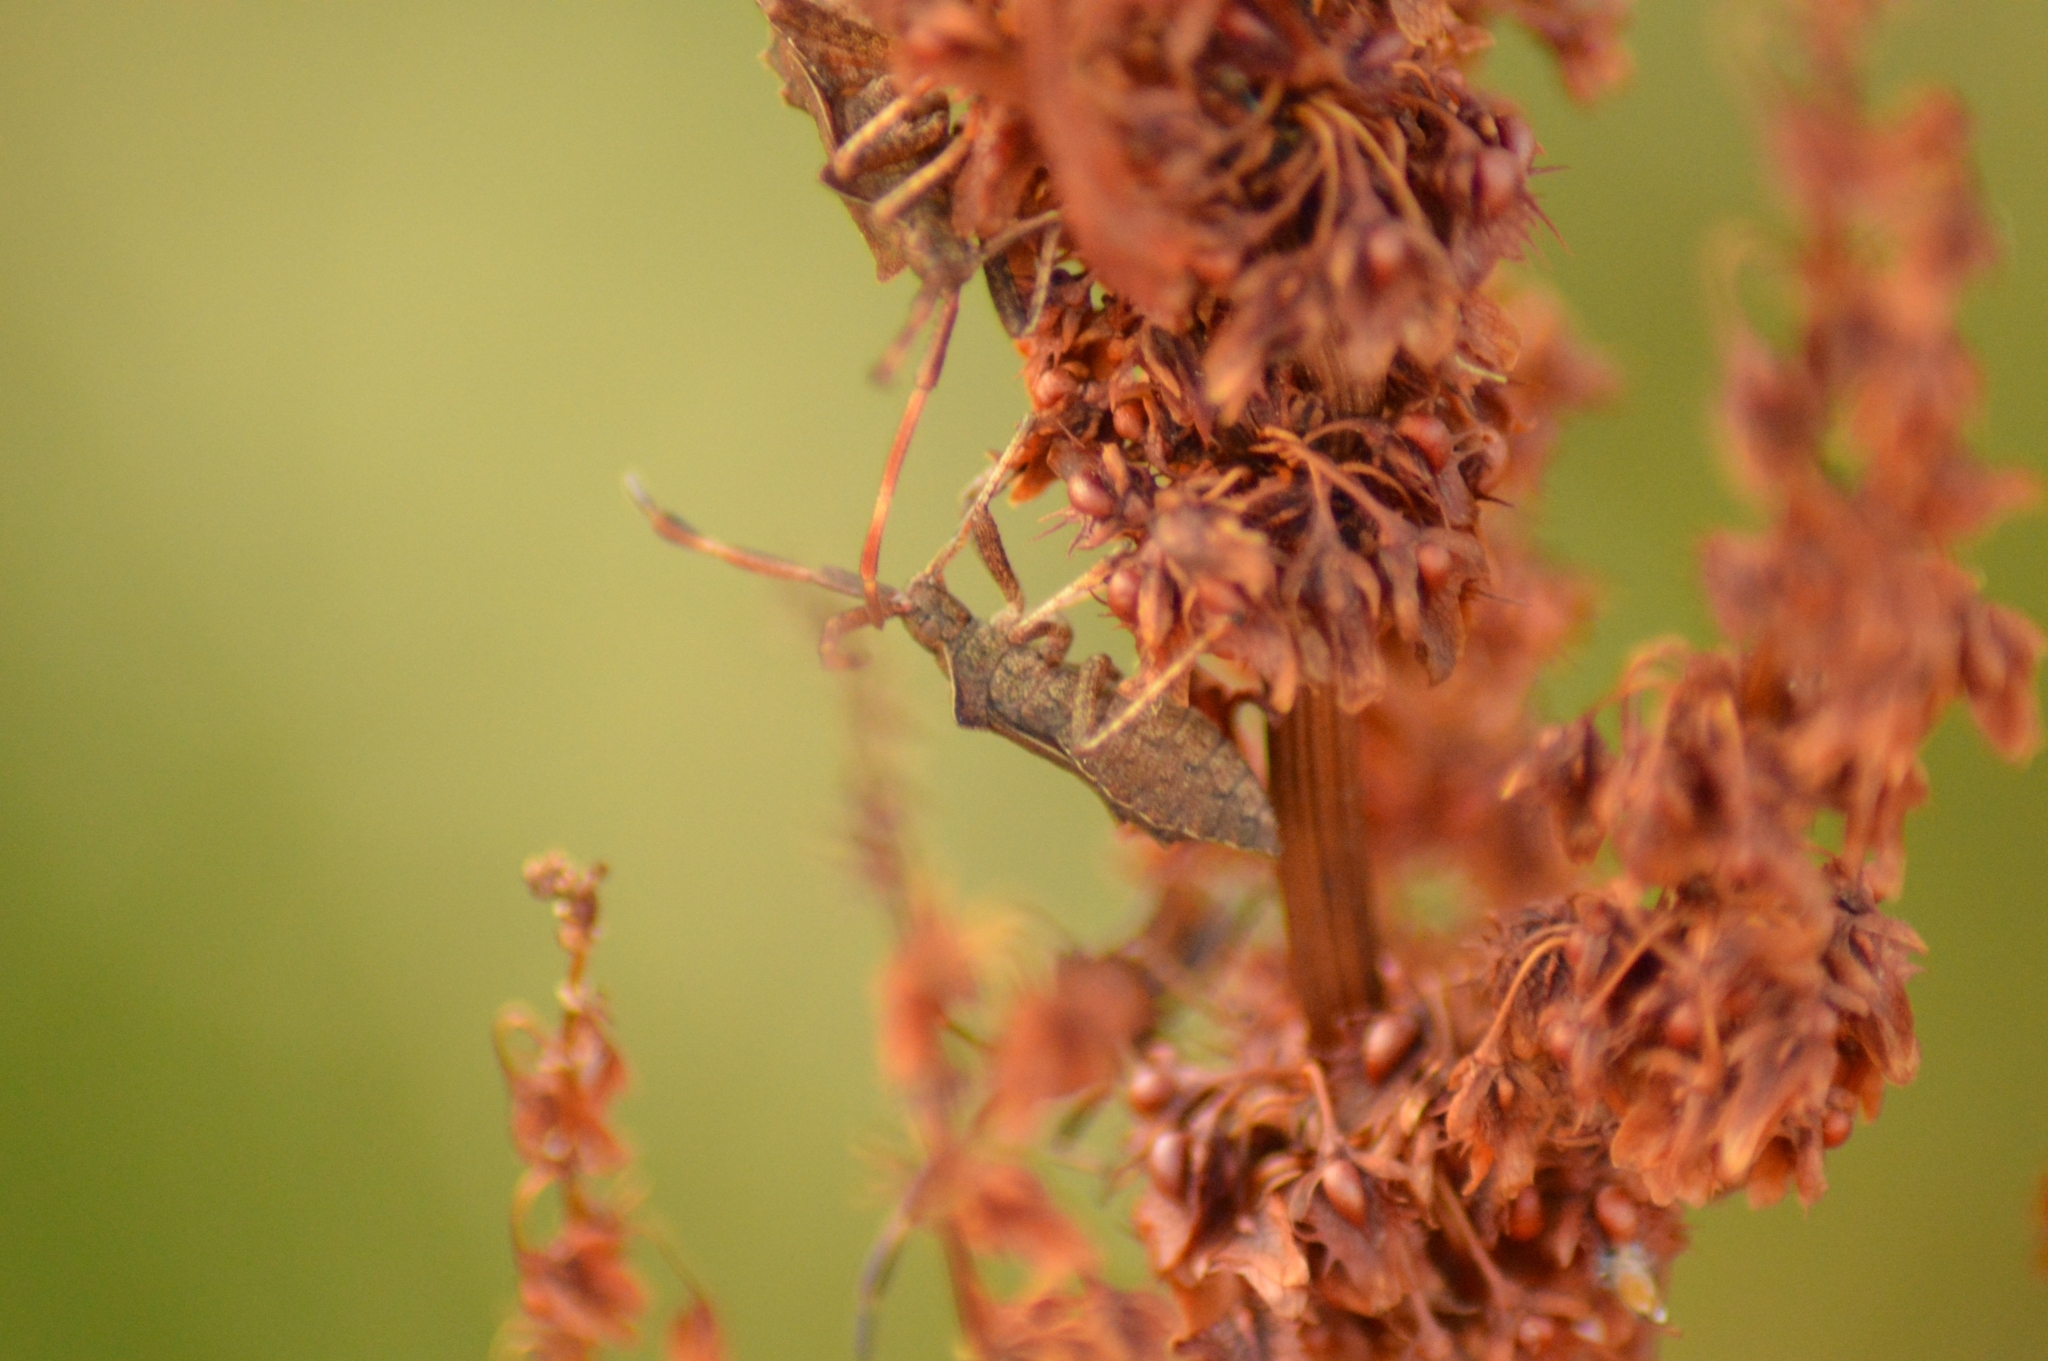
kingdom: Animalia
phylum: Arthropoda
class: Insecta
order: Hemiptera
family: Coreidae
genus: Coreus
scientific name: Coreus marginatus
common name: Dock bug
